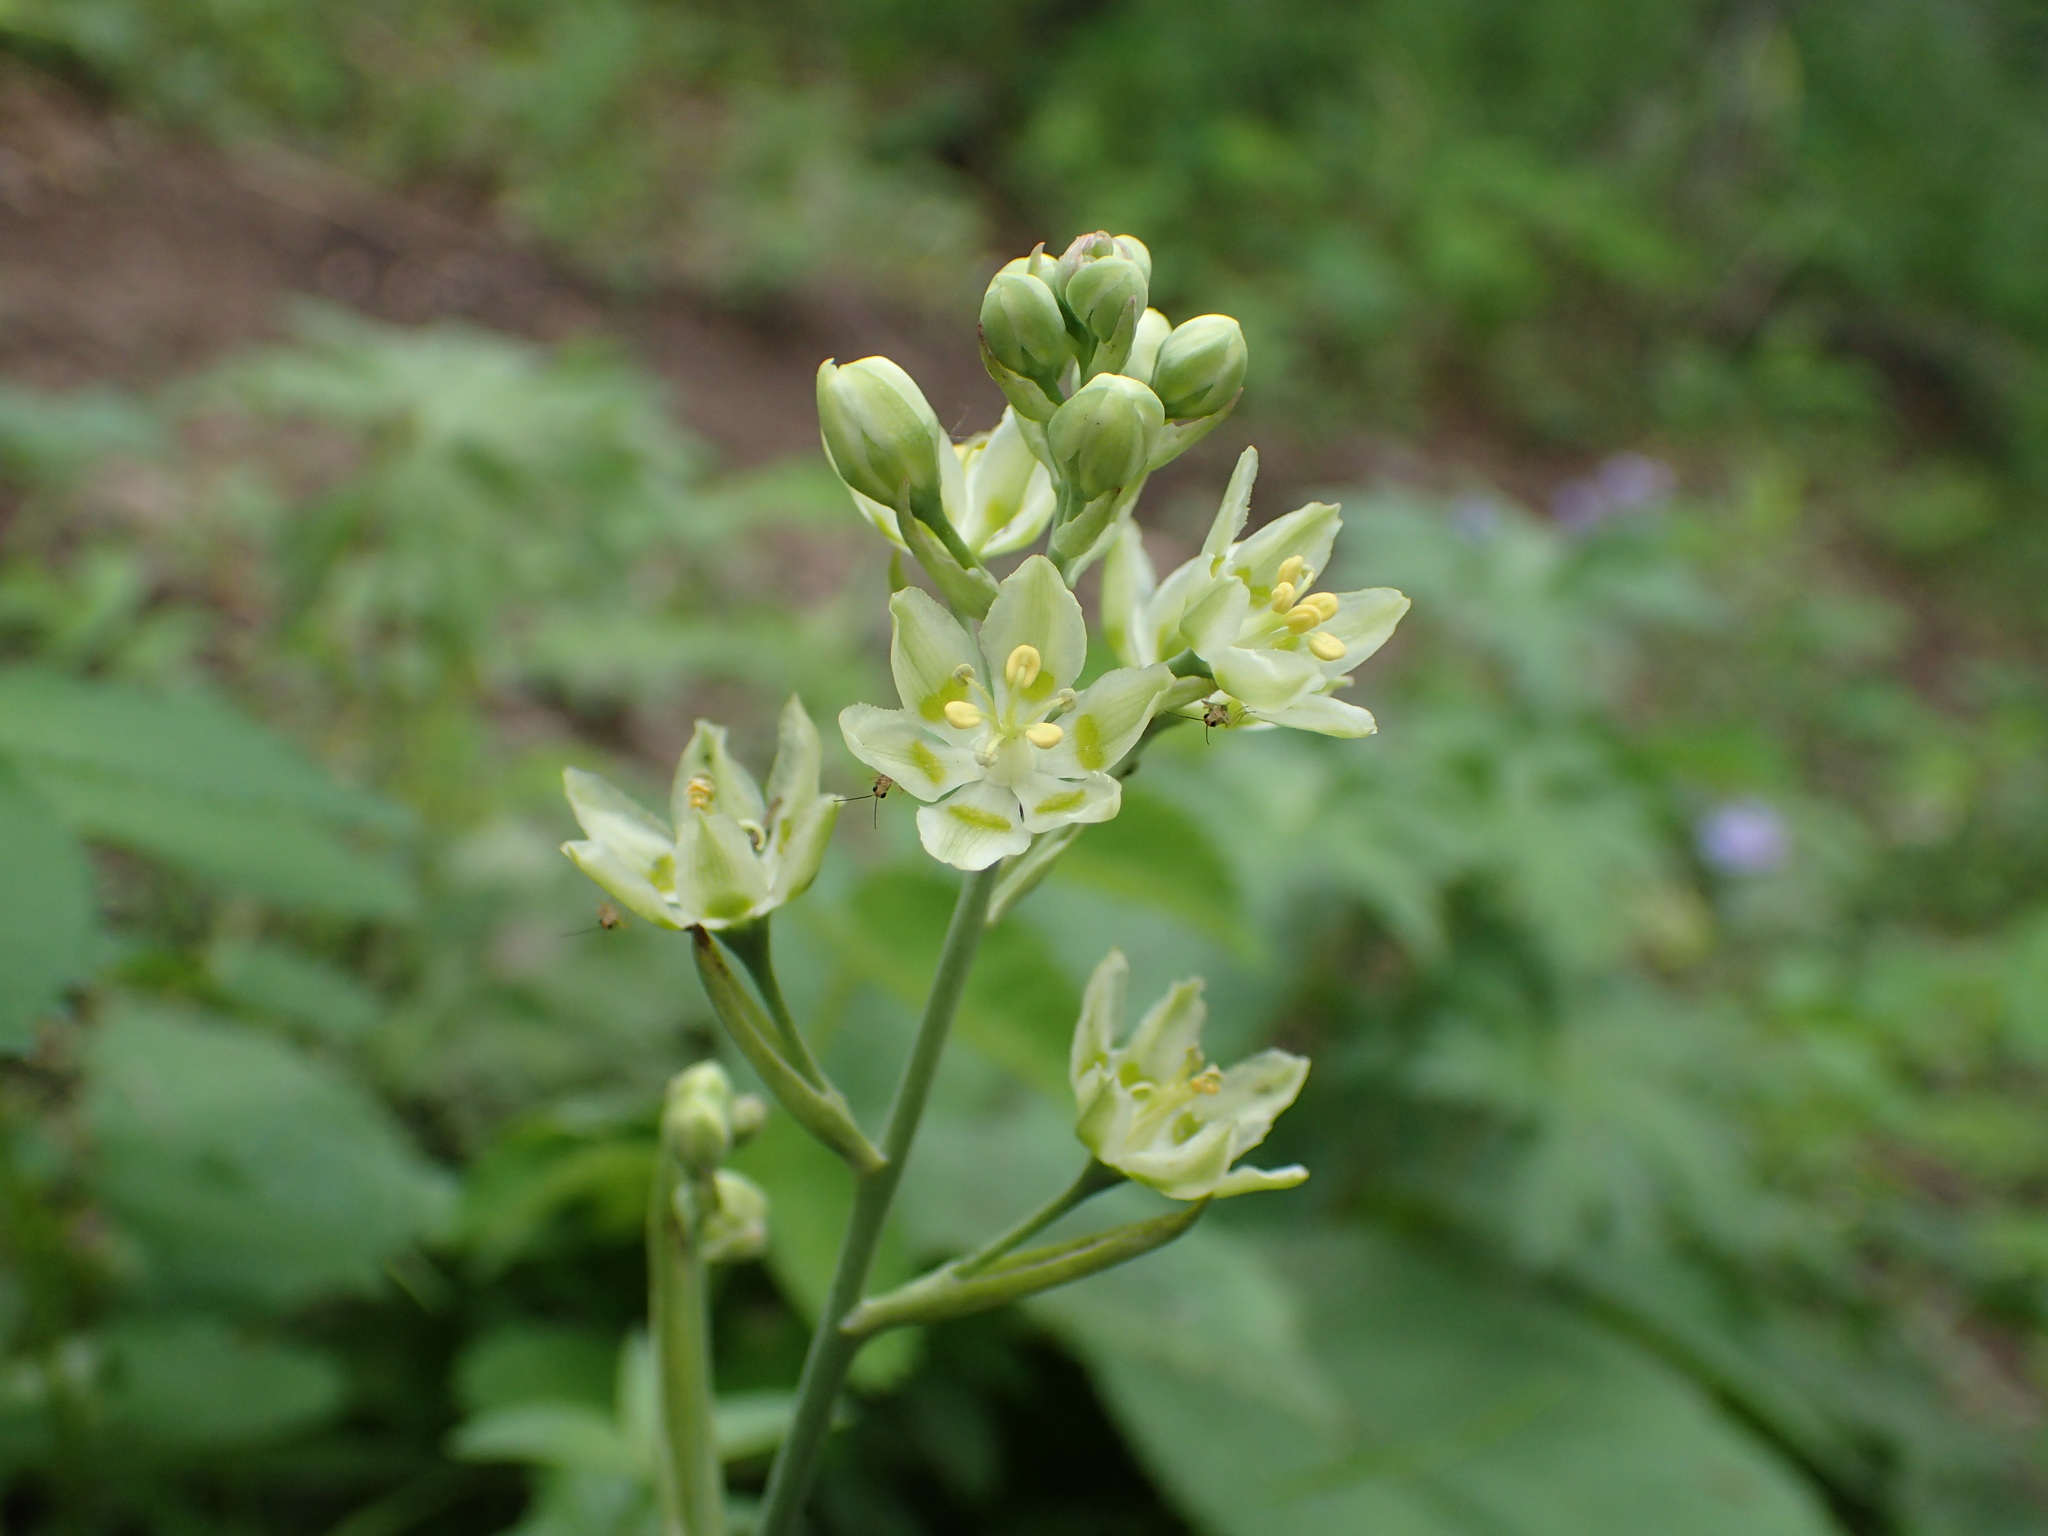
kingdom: Plantae
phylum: Tracheophyta
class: Liliopsida
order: Liliales
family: Melanthiaceae
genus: Anticlea
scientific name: Anticlea elegans
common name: Mountain death camas
